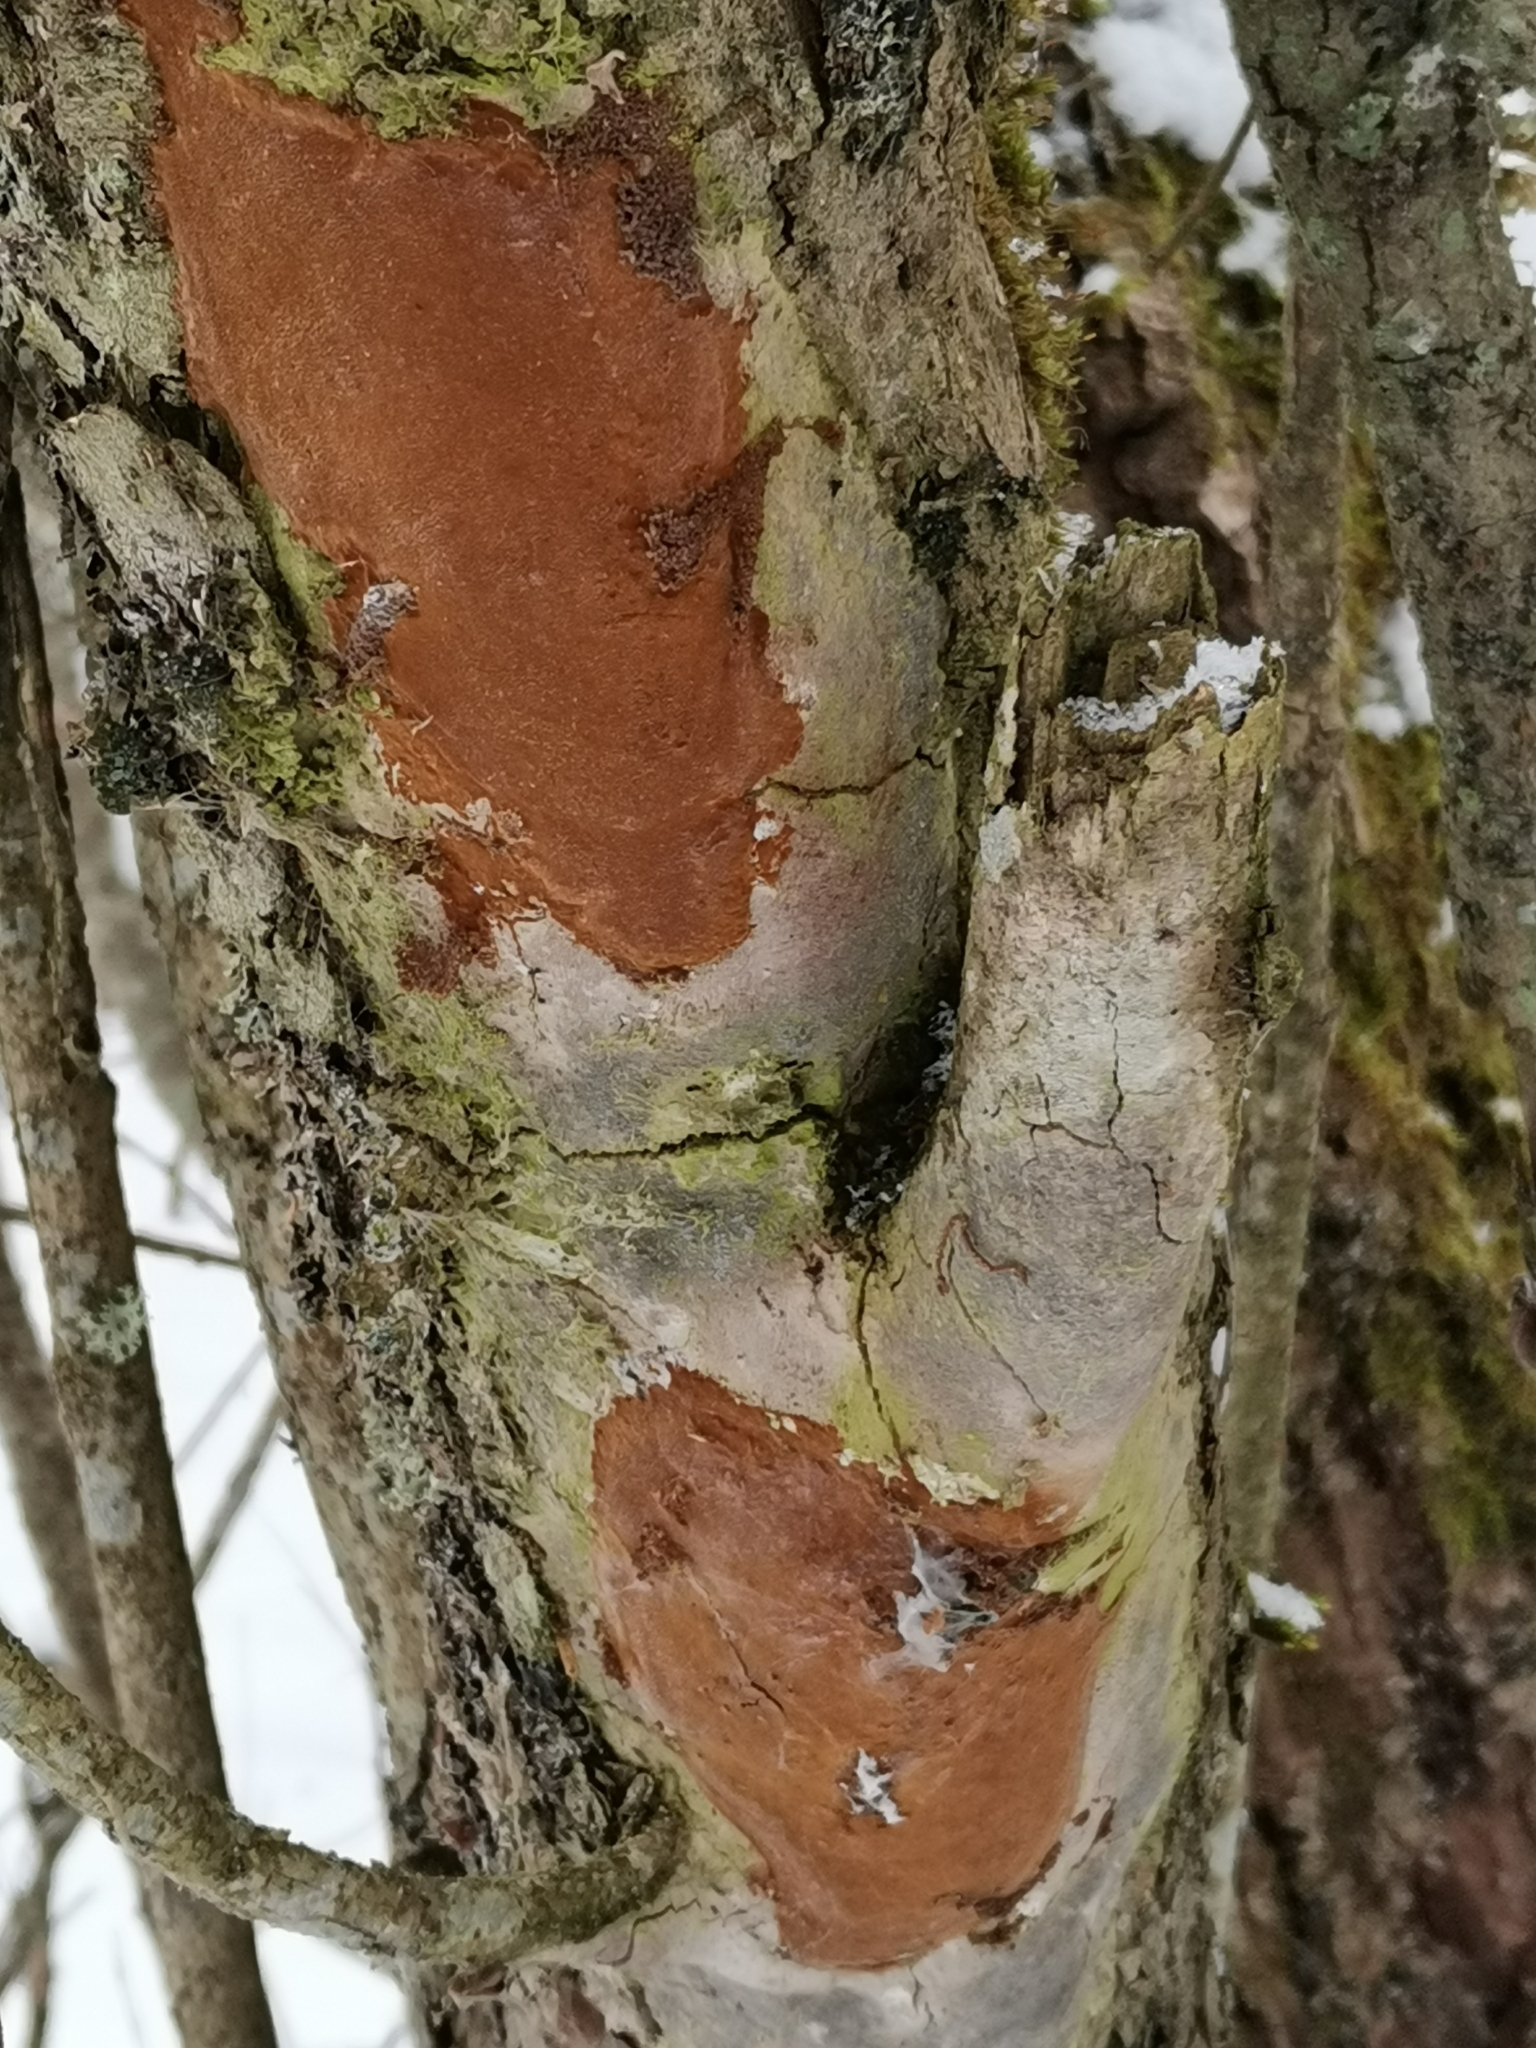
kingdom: Fungi
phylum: Basidiomycota
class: Agaricomycetes
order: Hymenochaetales
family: Hymenochaetaceae
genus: Fomitiporia
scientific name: Fomitiporia punctata
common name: Elbowpatch crust
